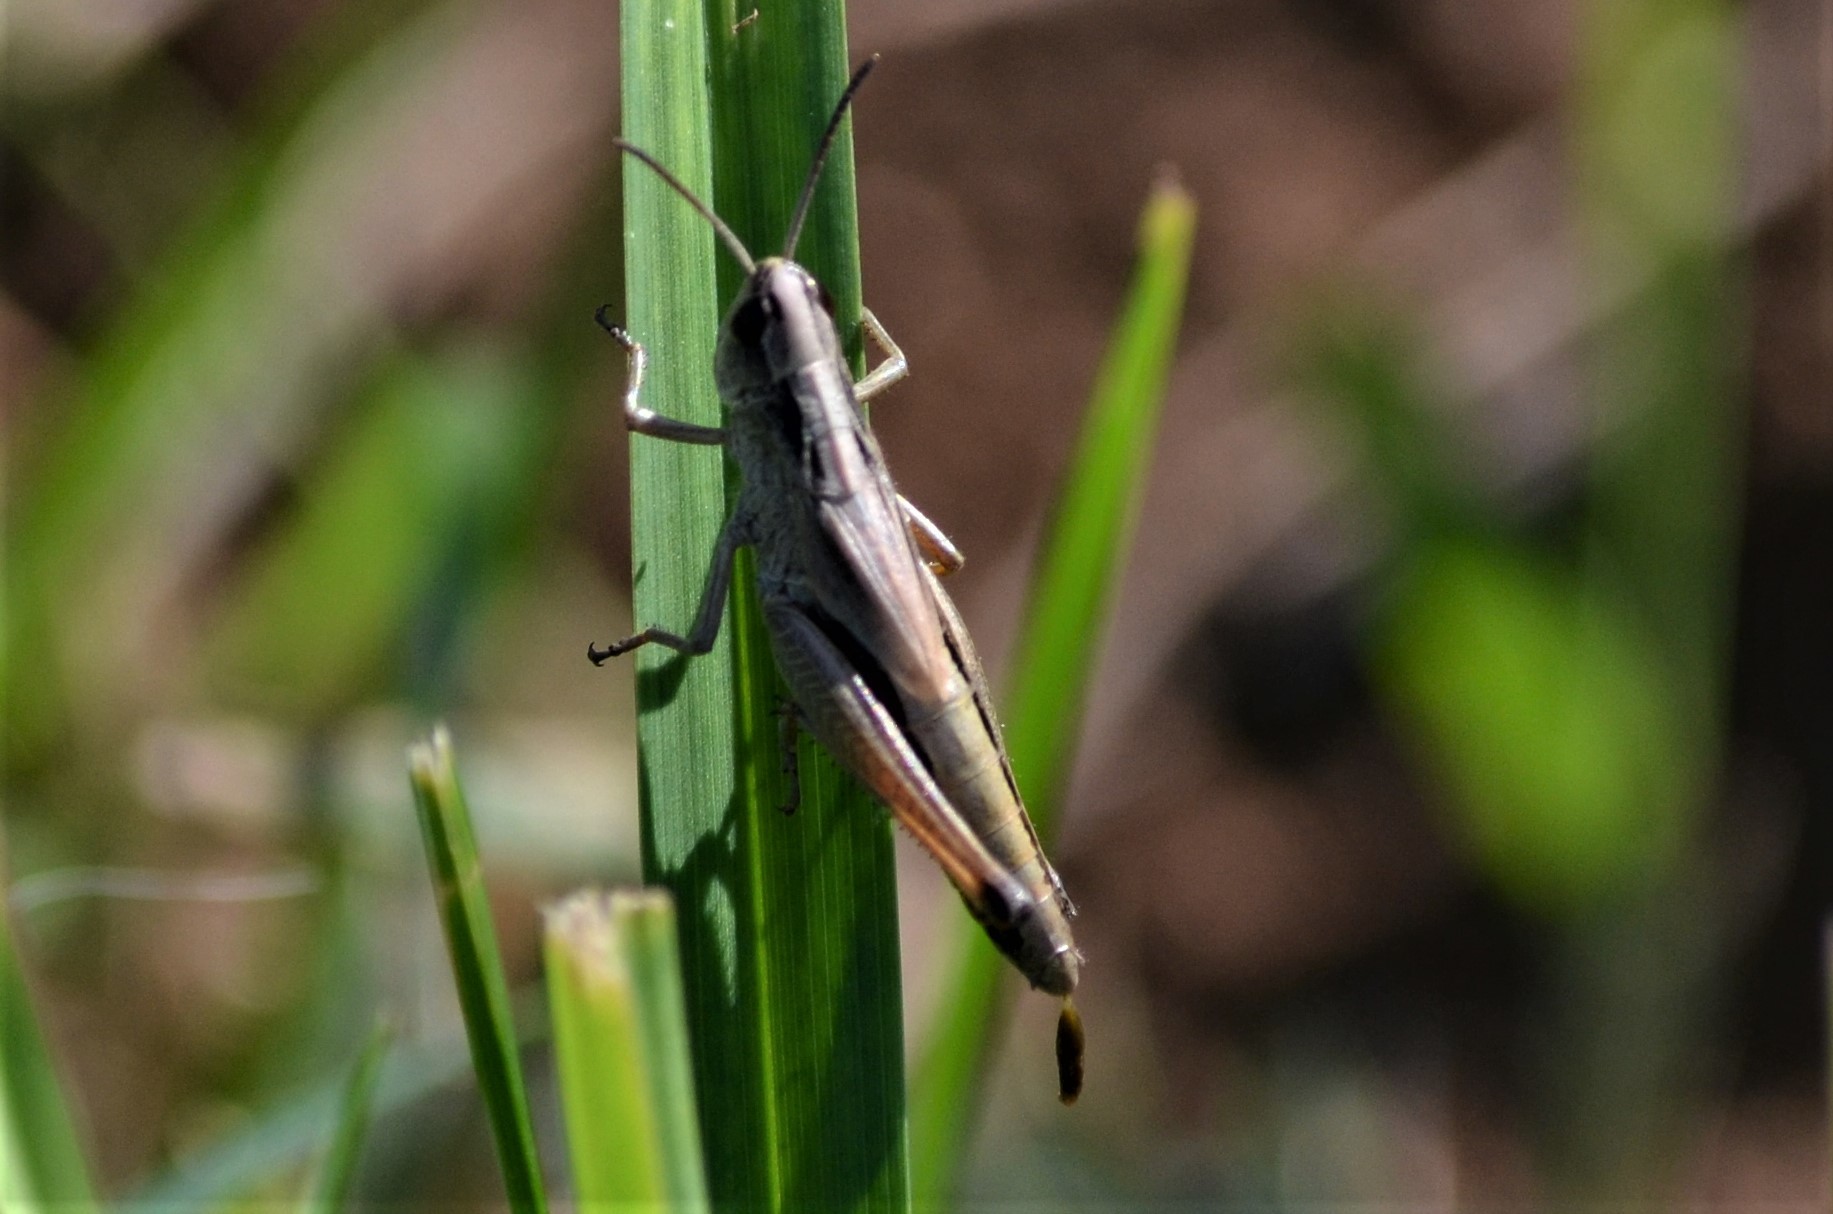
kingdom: Animalia
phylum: Arthropoda
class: Insecta
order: Orthoptera
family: Acrididae
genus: Pseudochorthippus
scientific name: Pseudochorthippus parallelus
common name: Meadow grasshopper
